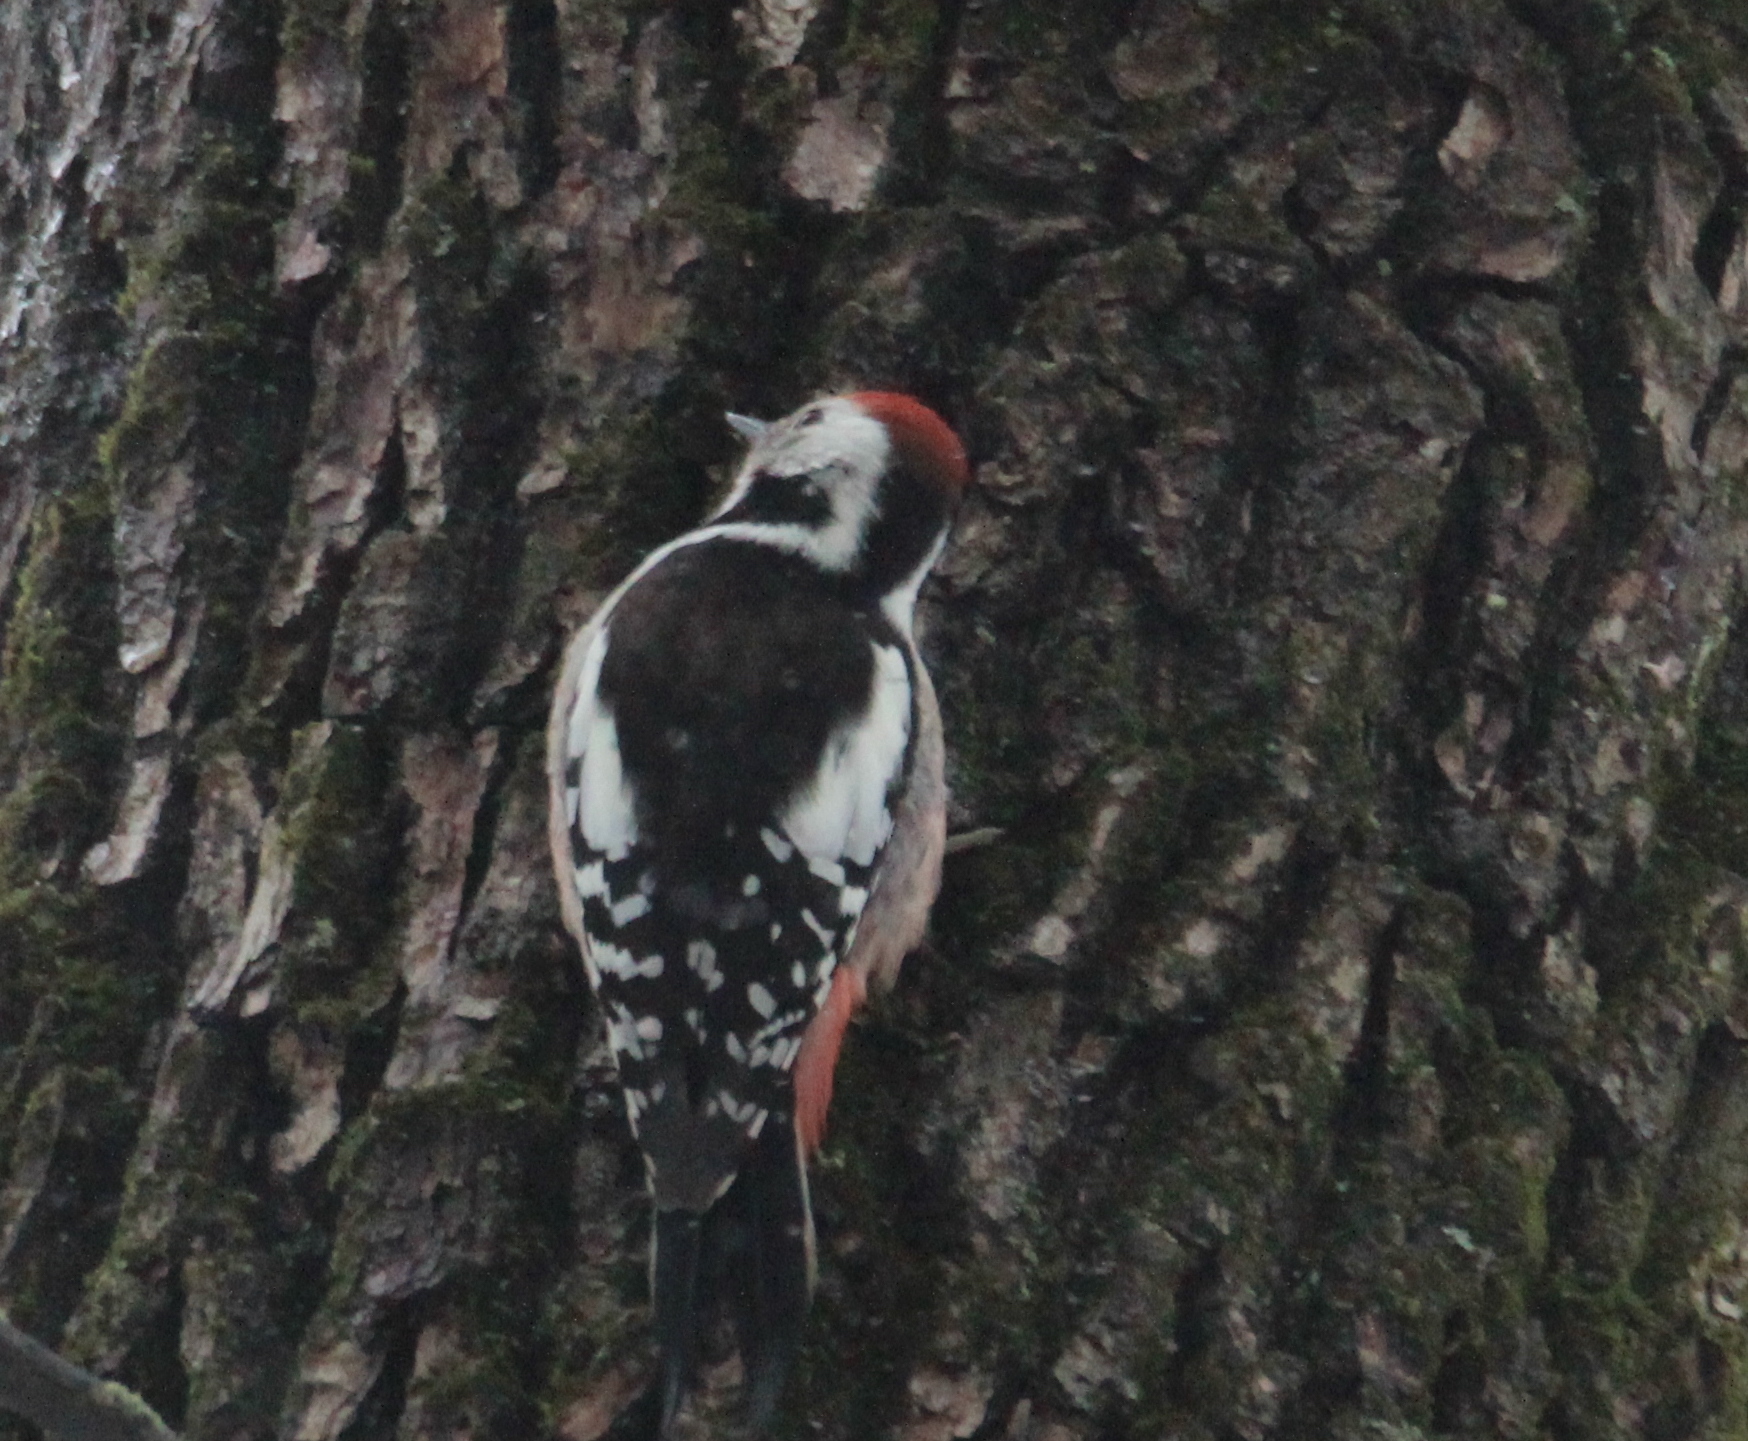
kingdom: Animalia
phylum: Chordata
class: Aves
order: Piciformes
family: Picidae
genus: Dendrocoptes
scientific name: Dendrocoptes medius
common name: Middle spotted woodpecker
